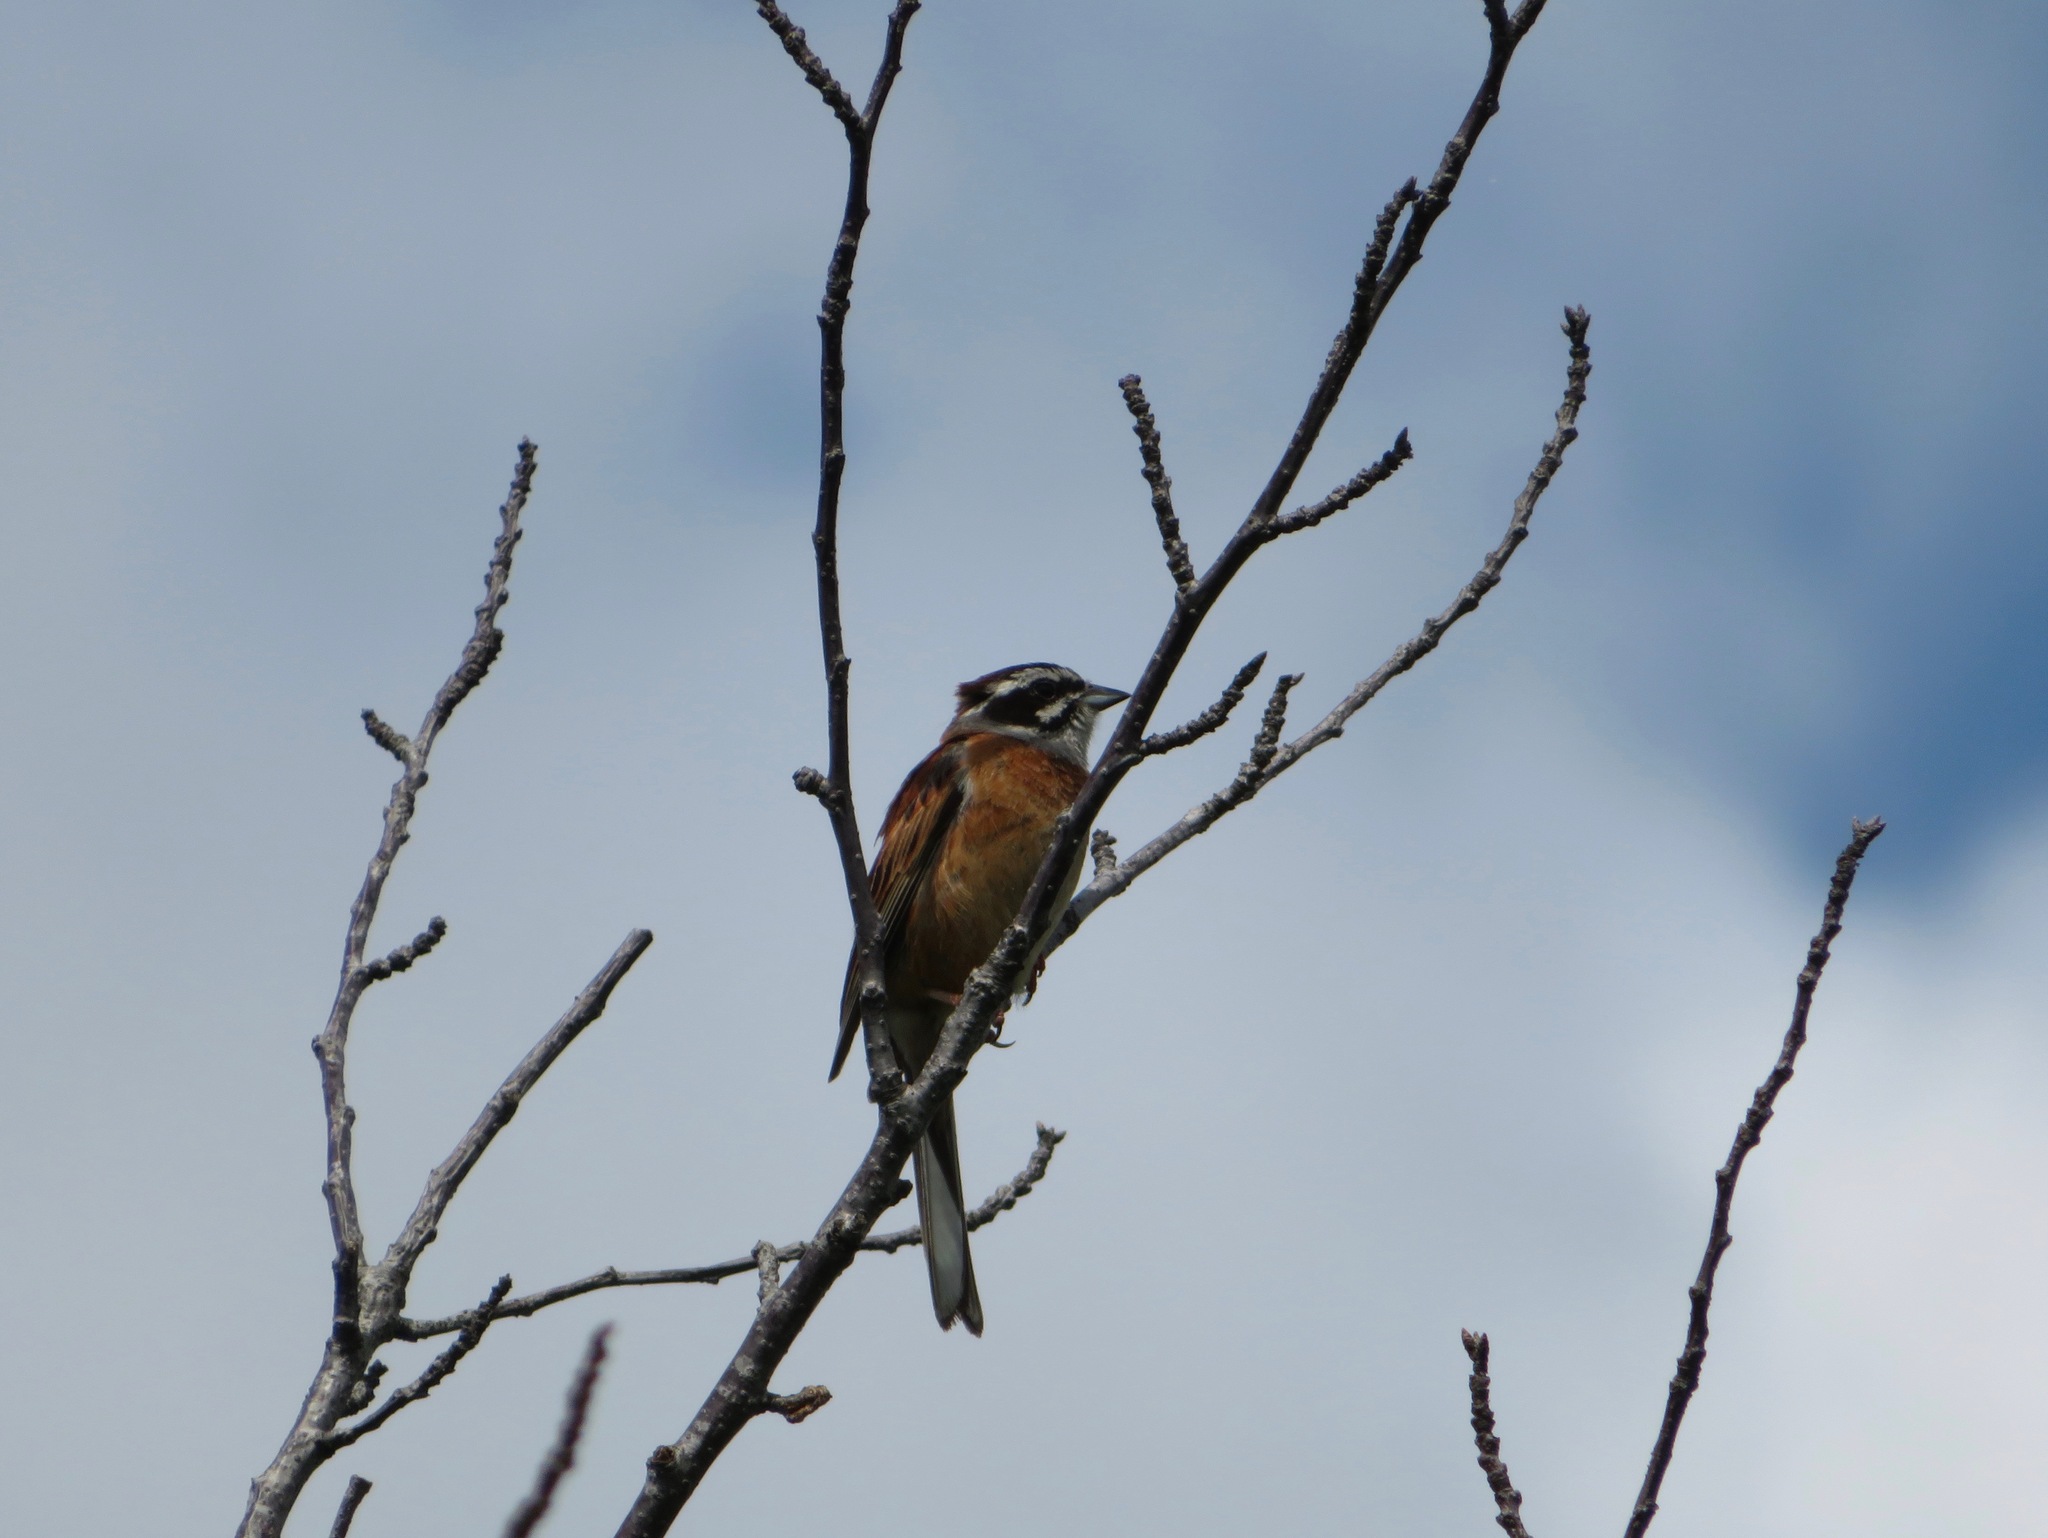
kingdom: Animalia
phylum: Chordata
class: Aves
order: Passeriformes
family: Emberizidae
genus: Emberiza
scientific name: Emberiza cioides
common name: Meadow bunting
